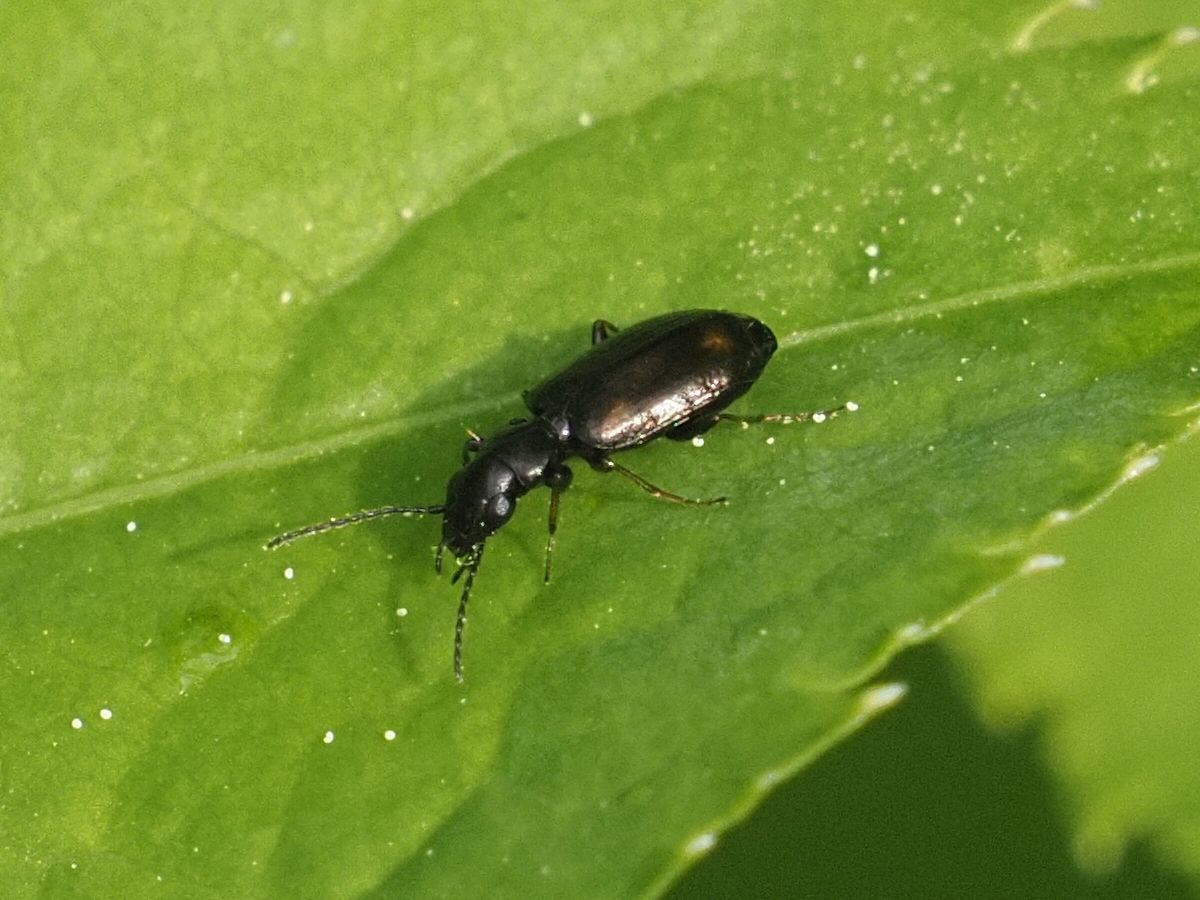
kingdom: Animalia
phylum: Arthropoda
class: Insecta
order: Coleoptera
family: Carabidae
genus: Syntomus
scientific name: Syntomus obscuroguttatus
